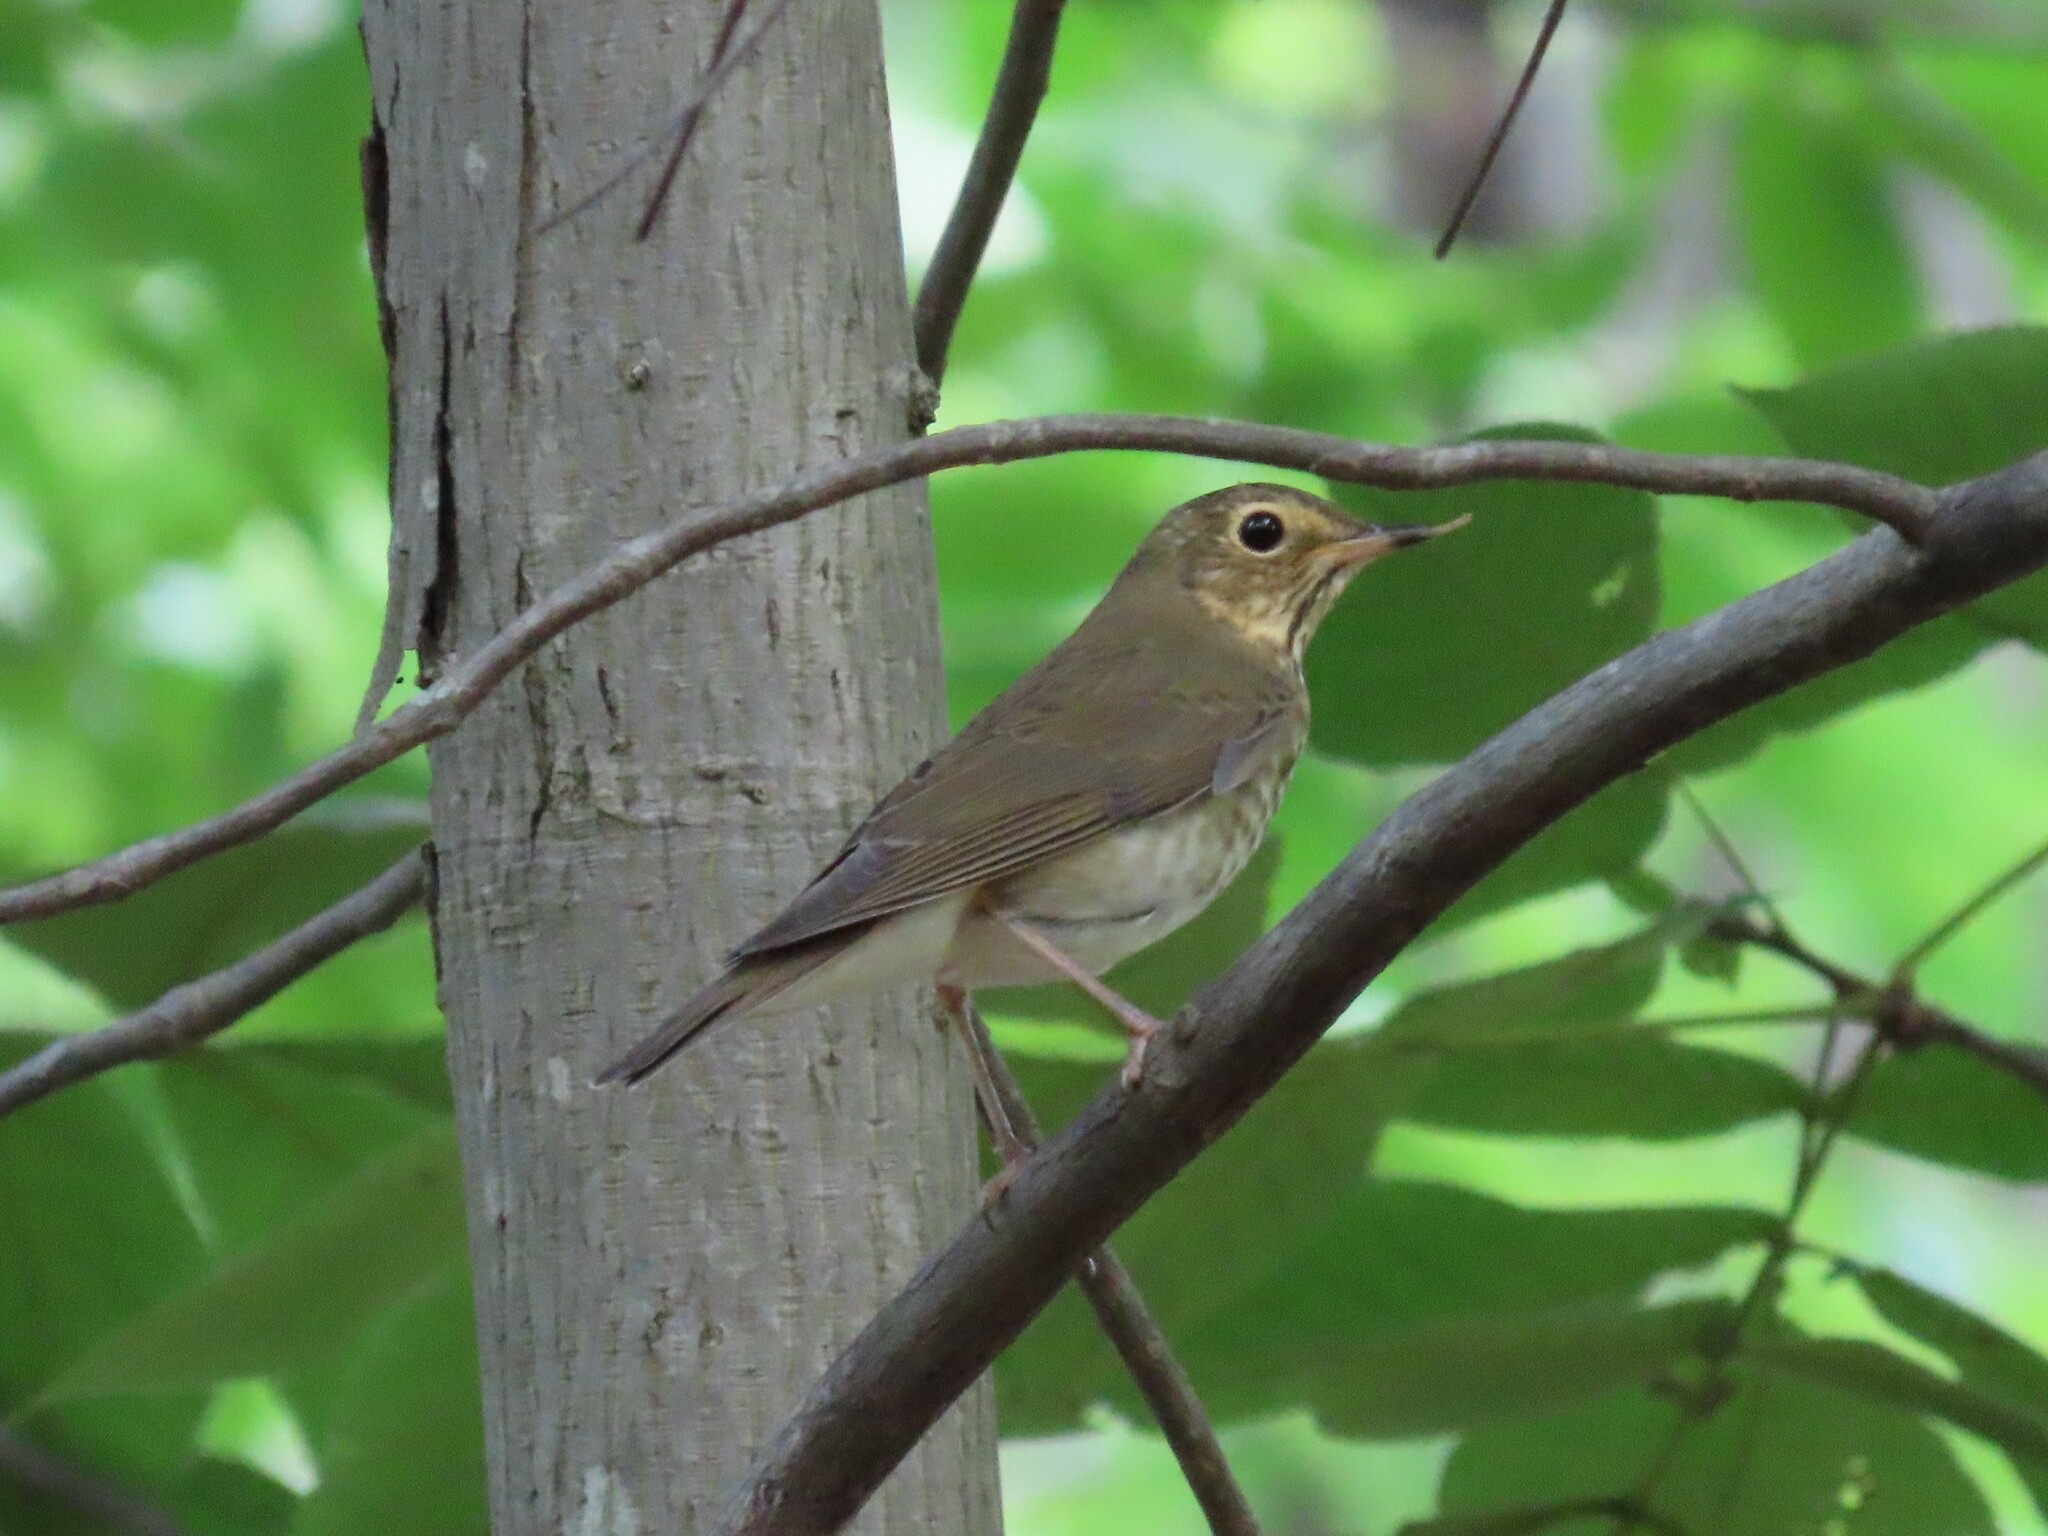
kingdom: Animalia
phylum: Chordata
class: Aves
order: Passeriformes
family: Turdidae
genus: Catharus
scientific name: Catharus minimus
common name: Grey-cheeked thrush
